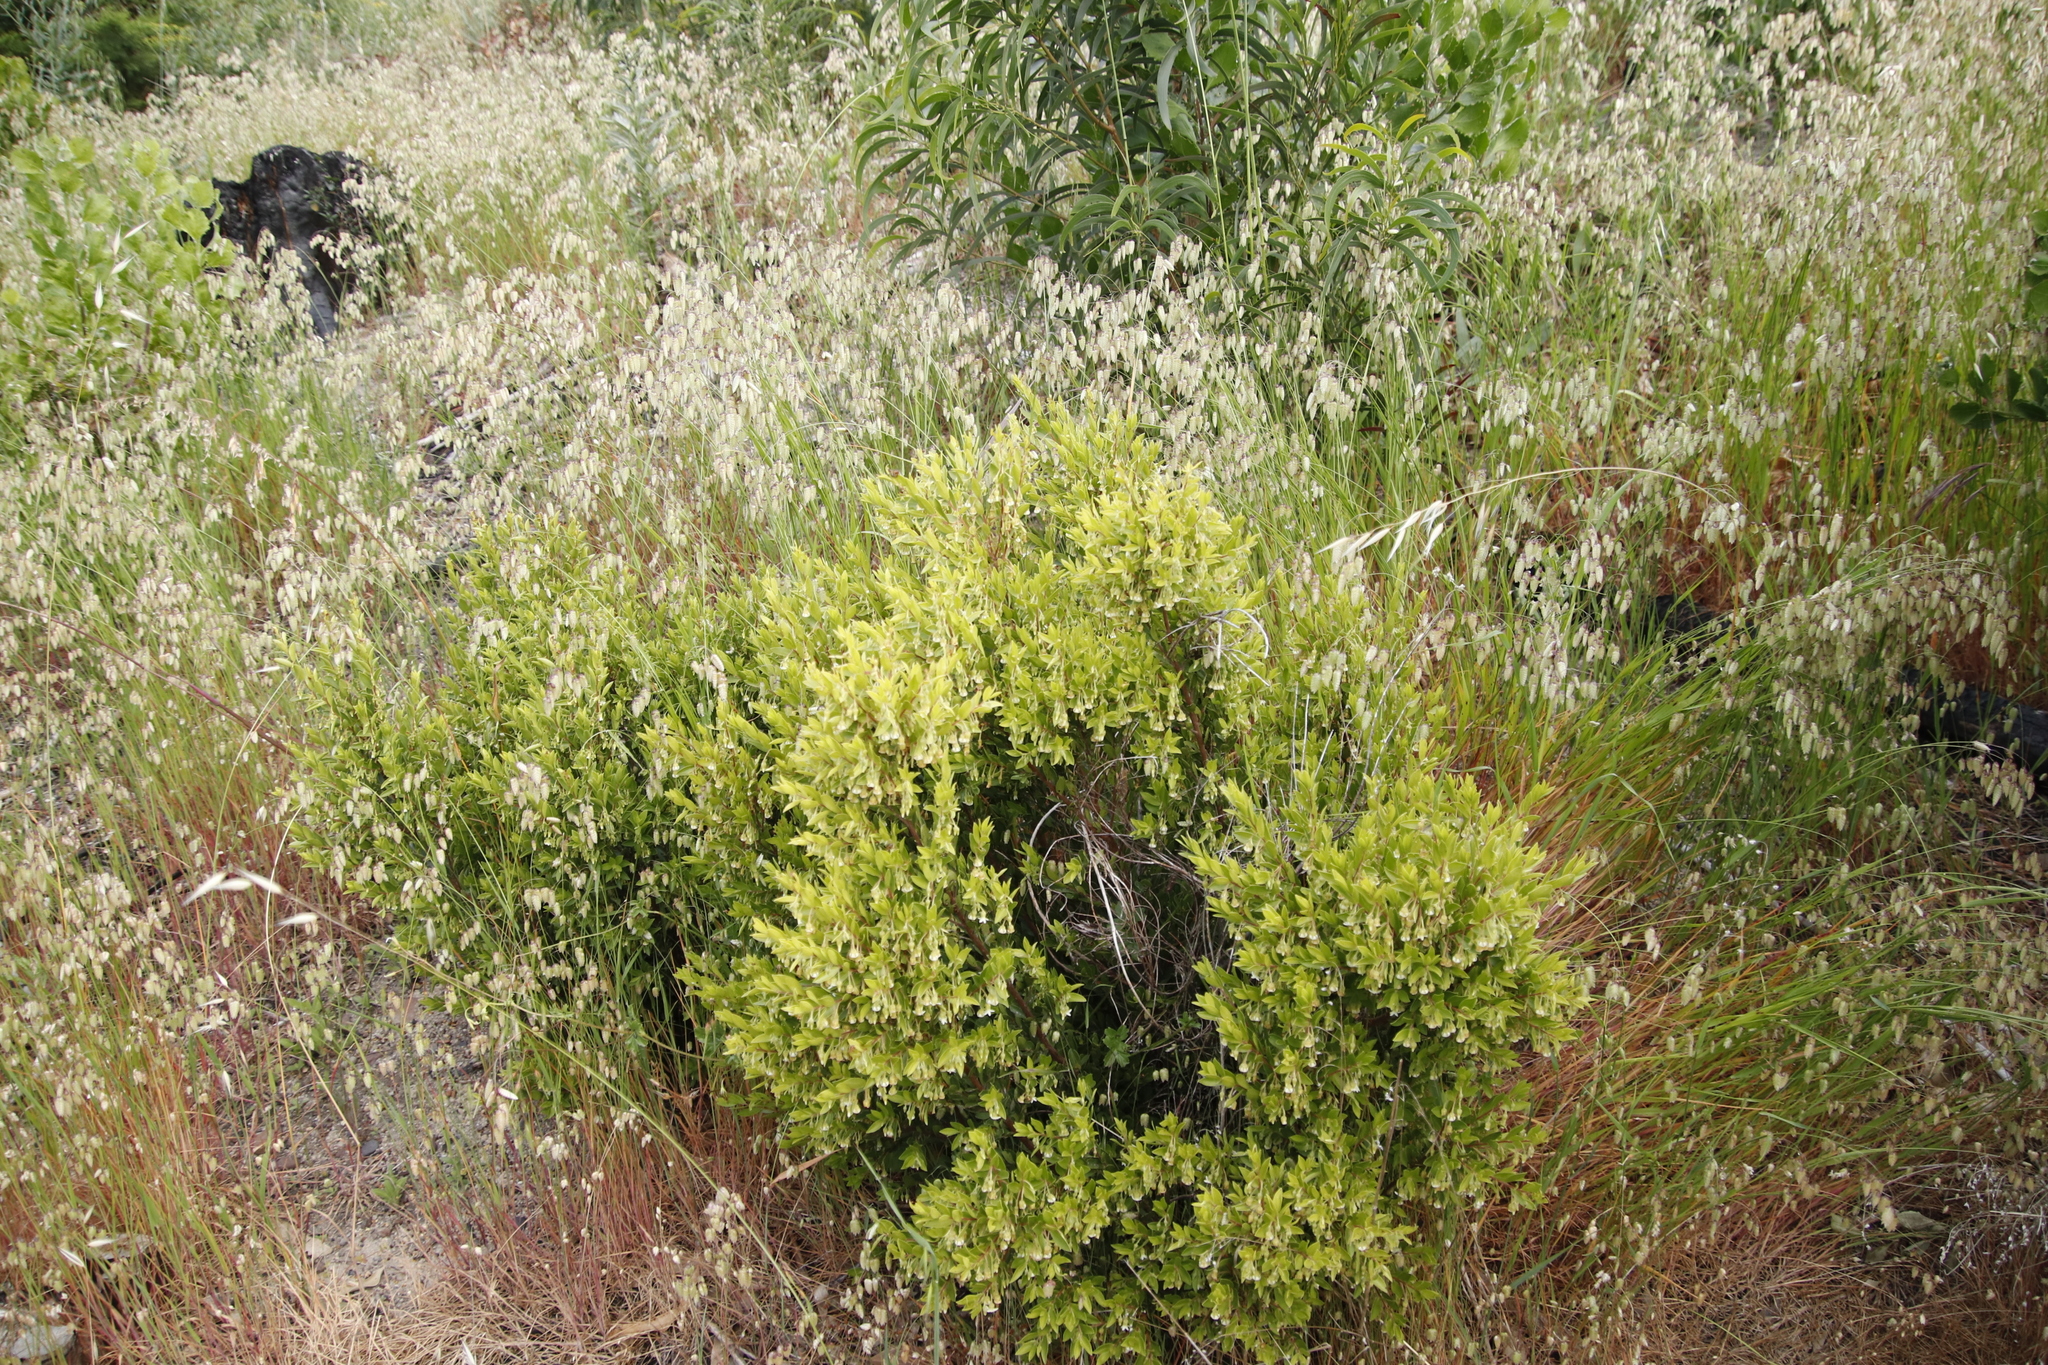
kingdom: Plantae
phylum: Tracheophyta
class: Magnoliopsida
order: Ericales
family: Ebenaceae
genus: Diospyros
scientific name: Diospyros glabra
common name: Fynbos star apple
